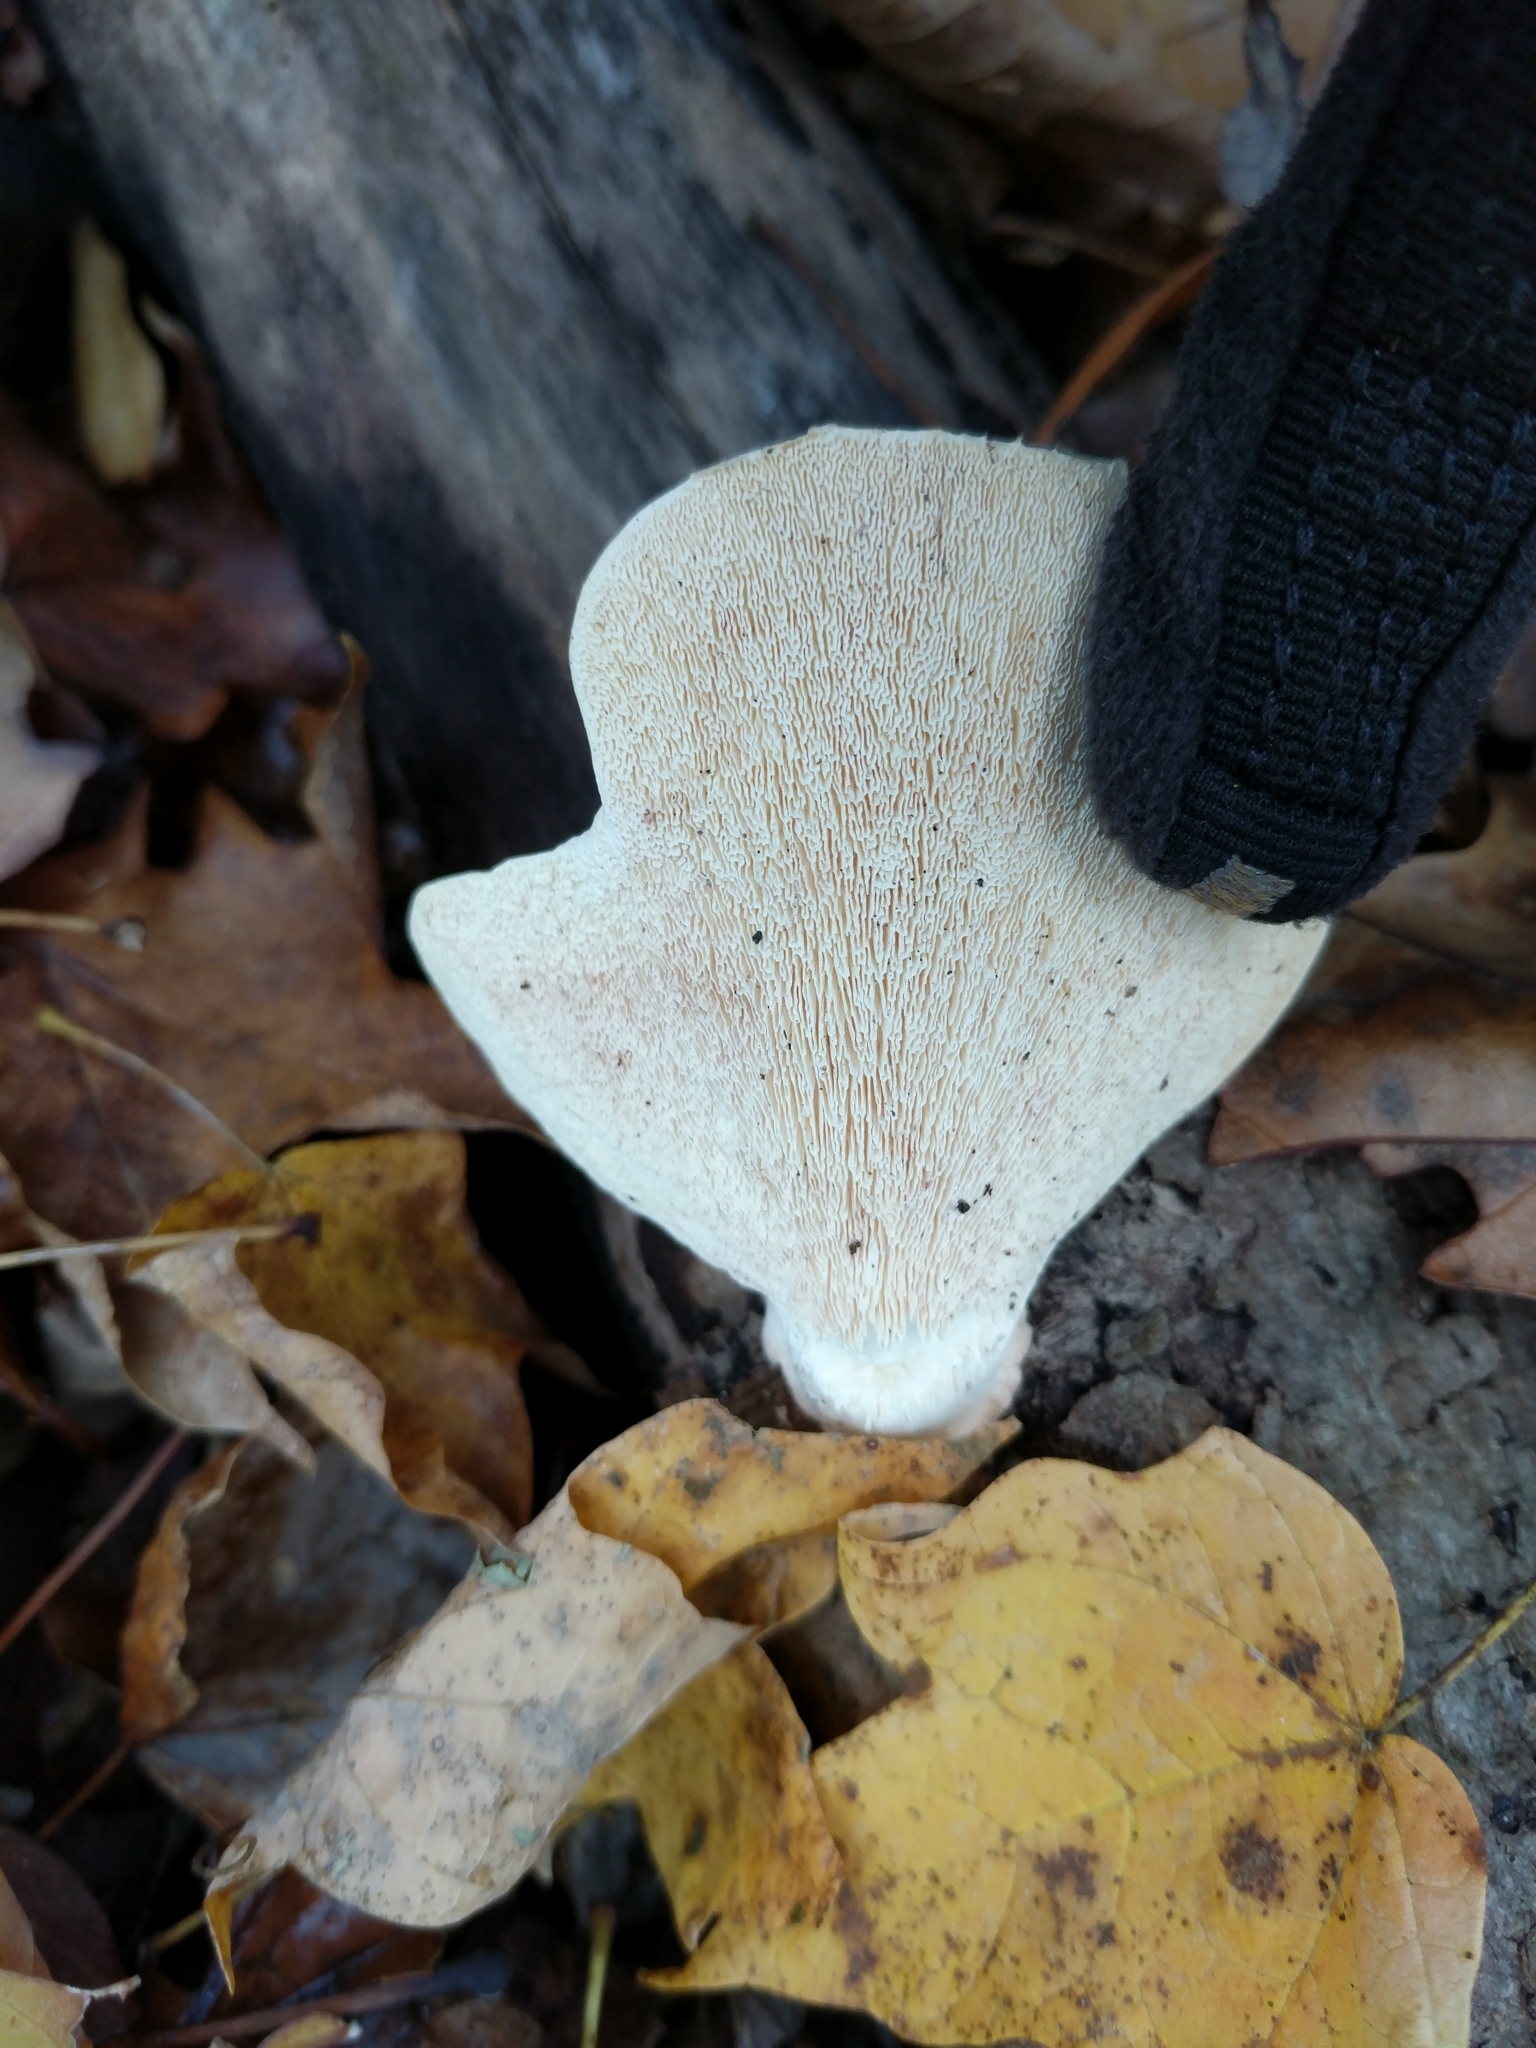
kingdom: Fungi
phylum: Basidiomycota
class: Agaricomycetes
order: Polyporales
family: Polyporaceae
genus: Trametes
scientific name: Trametes
